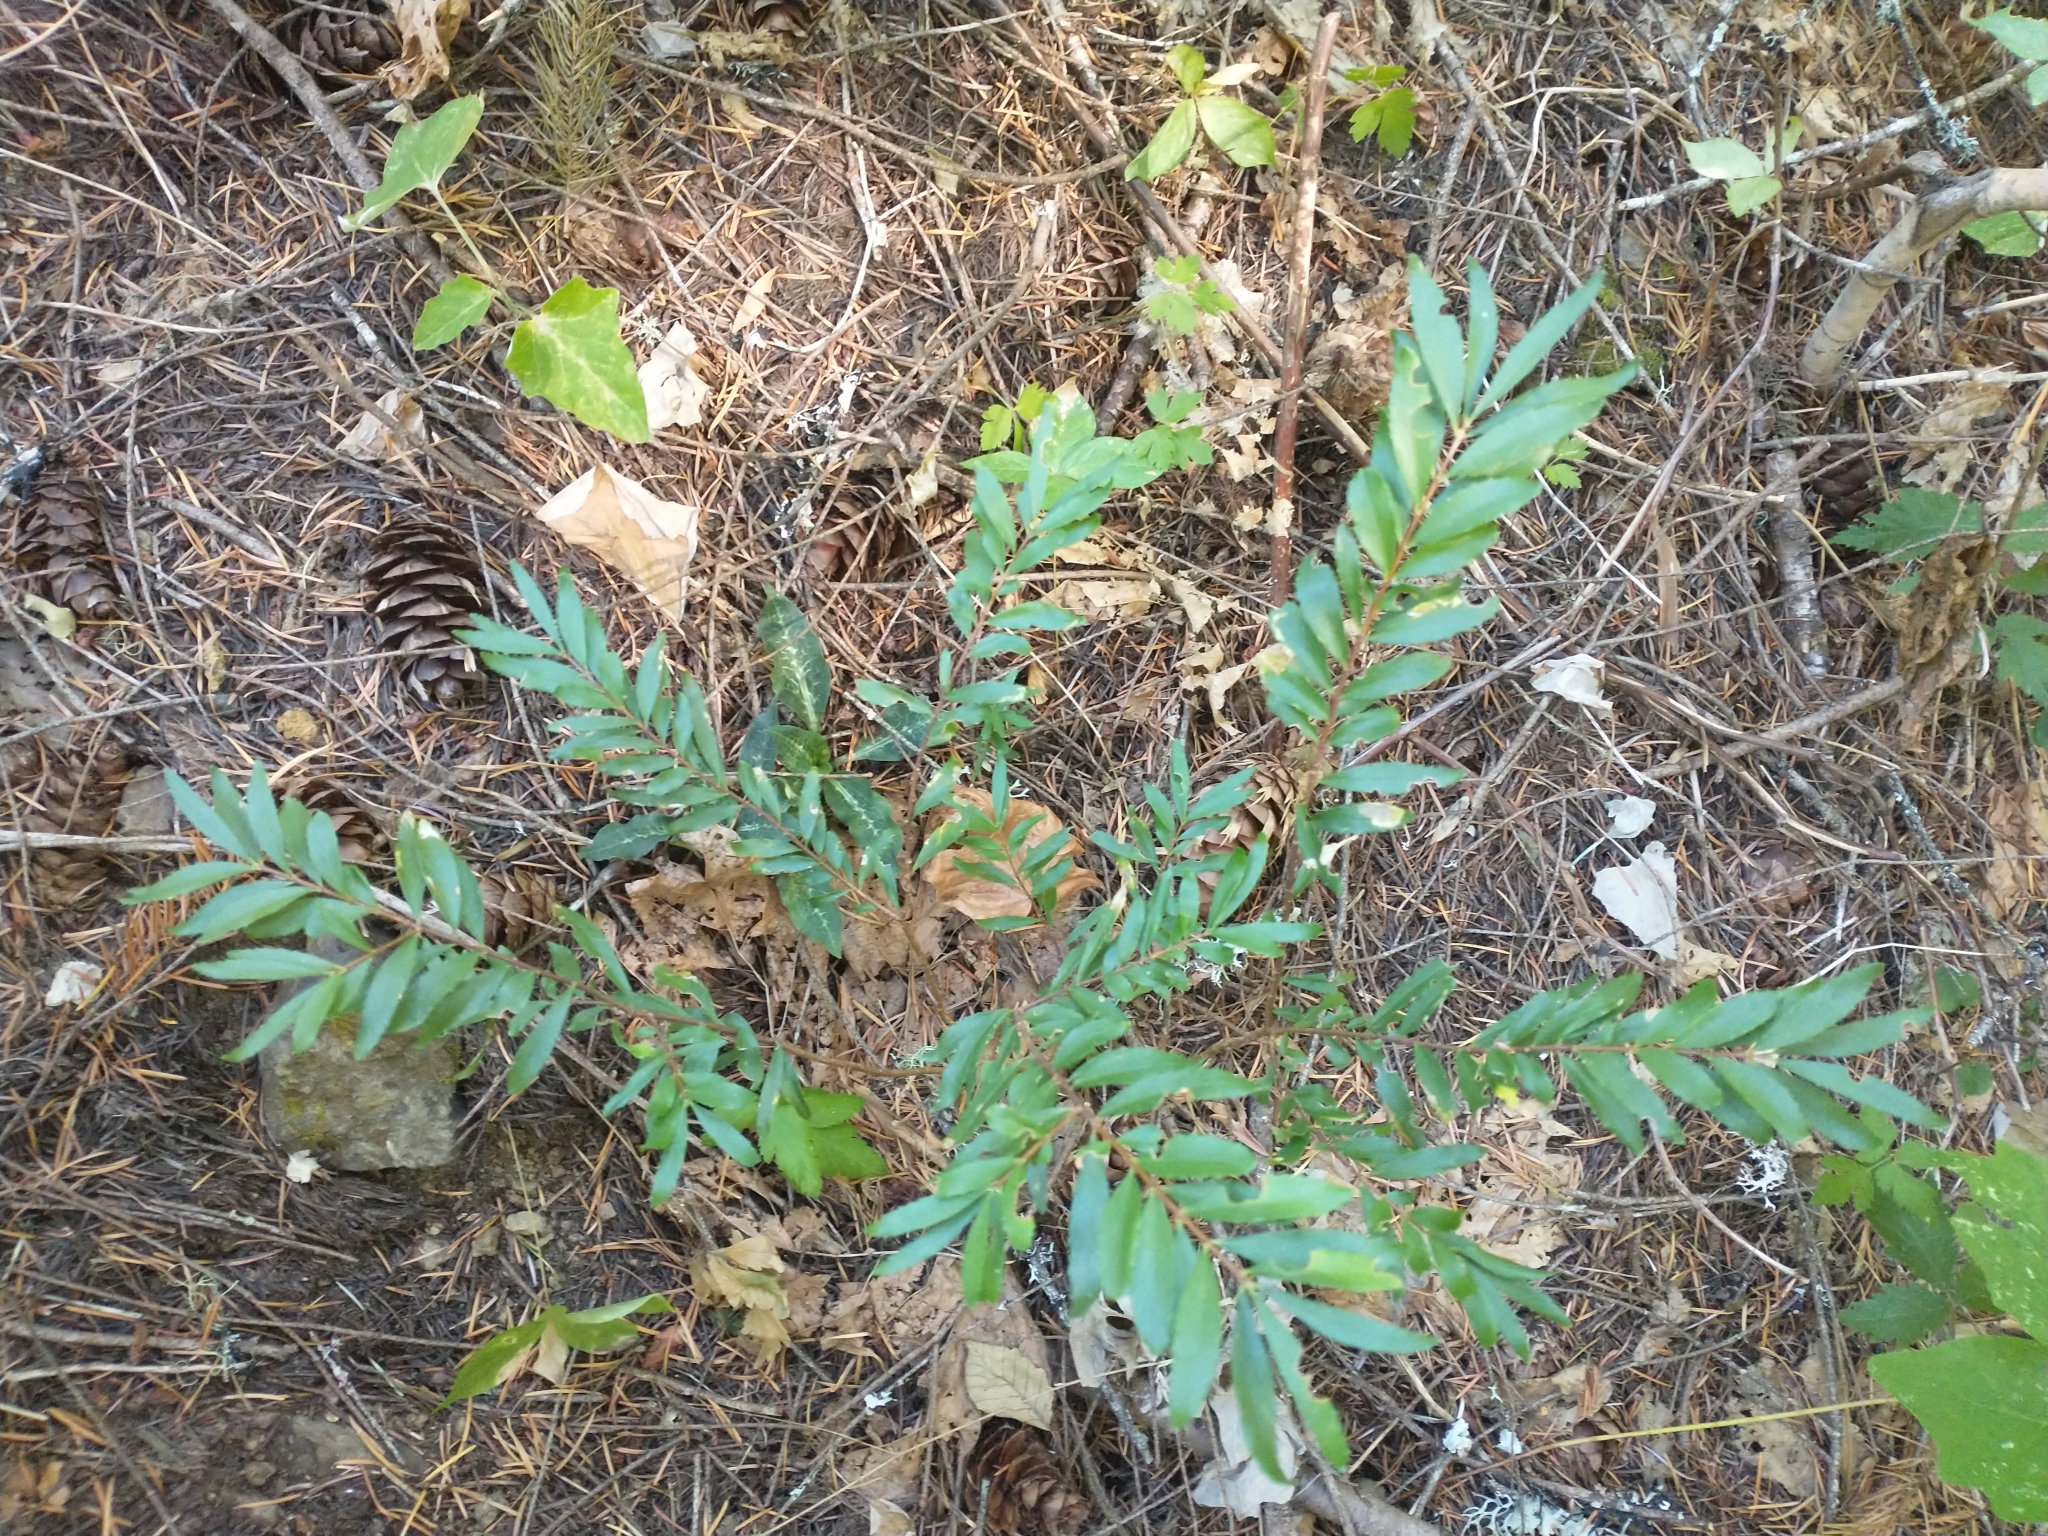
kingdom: Plantae
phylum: Tracheophyta
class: Magnoliopsida
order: Celastrales
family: Celastraceae
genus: Paxistima
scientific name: Paxistima myrsinites
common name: Mountain-lover
